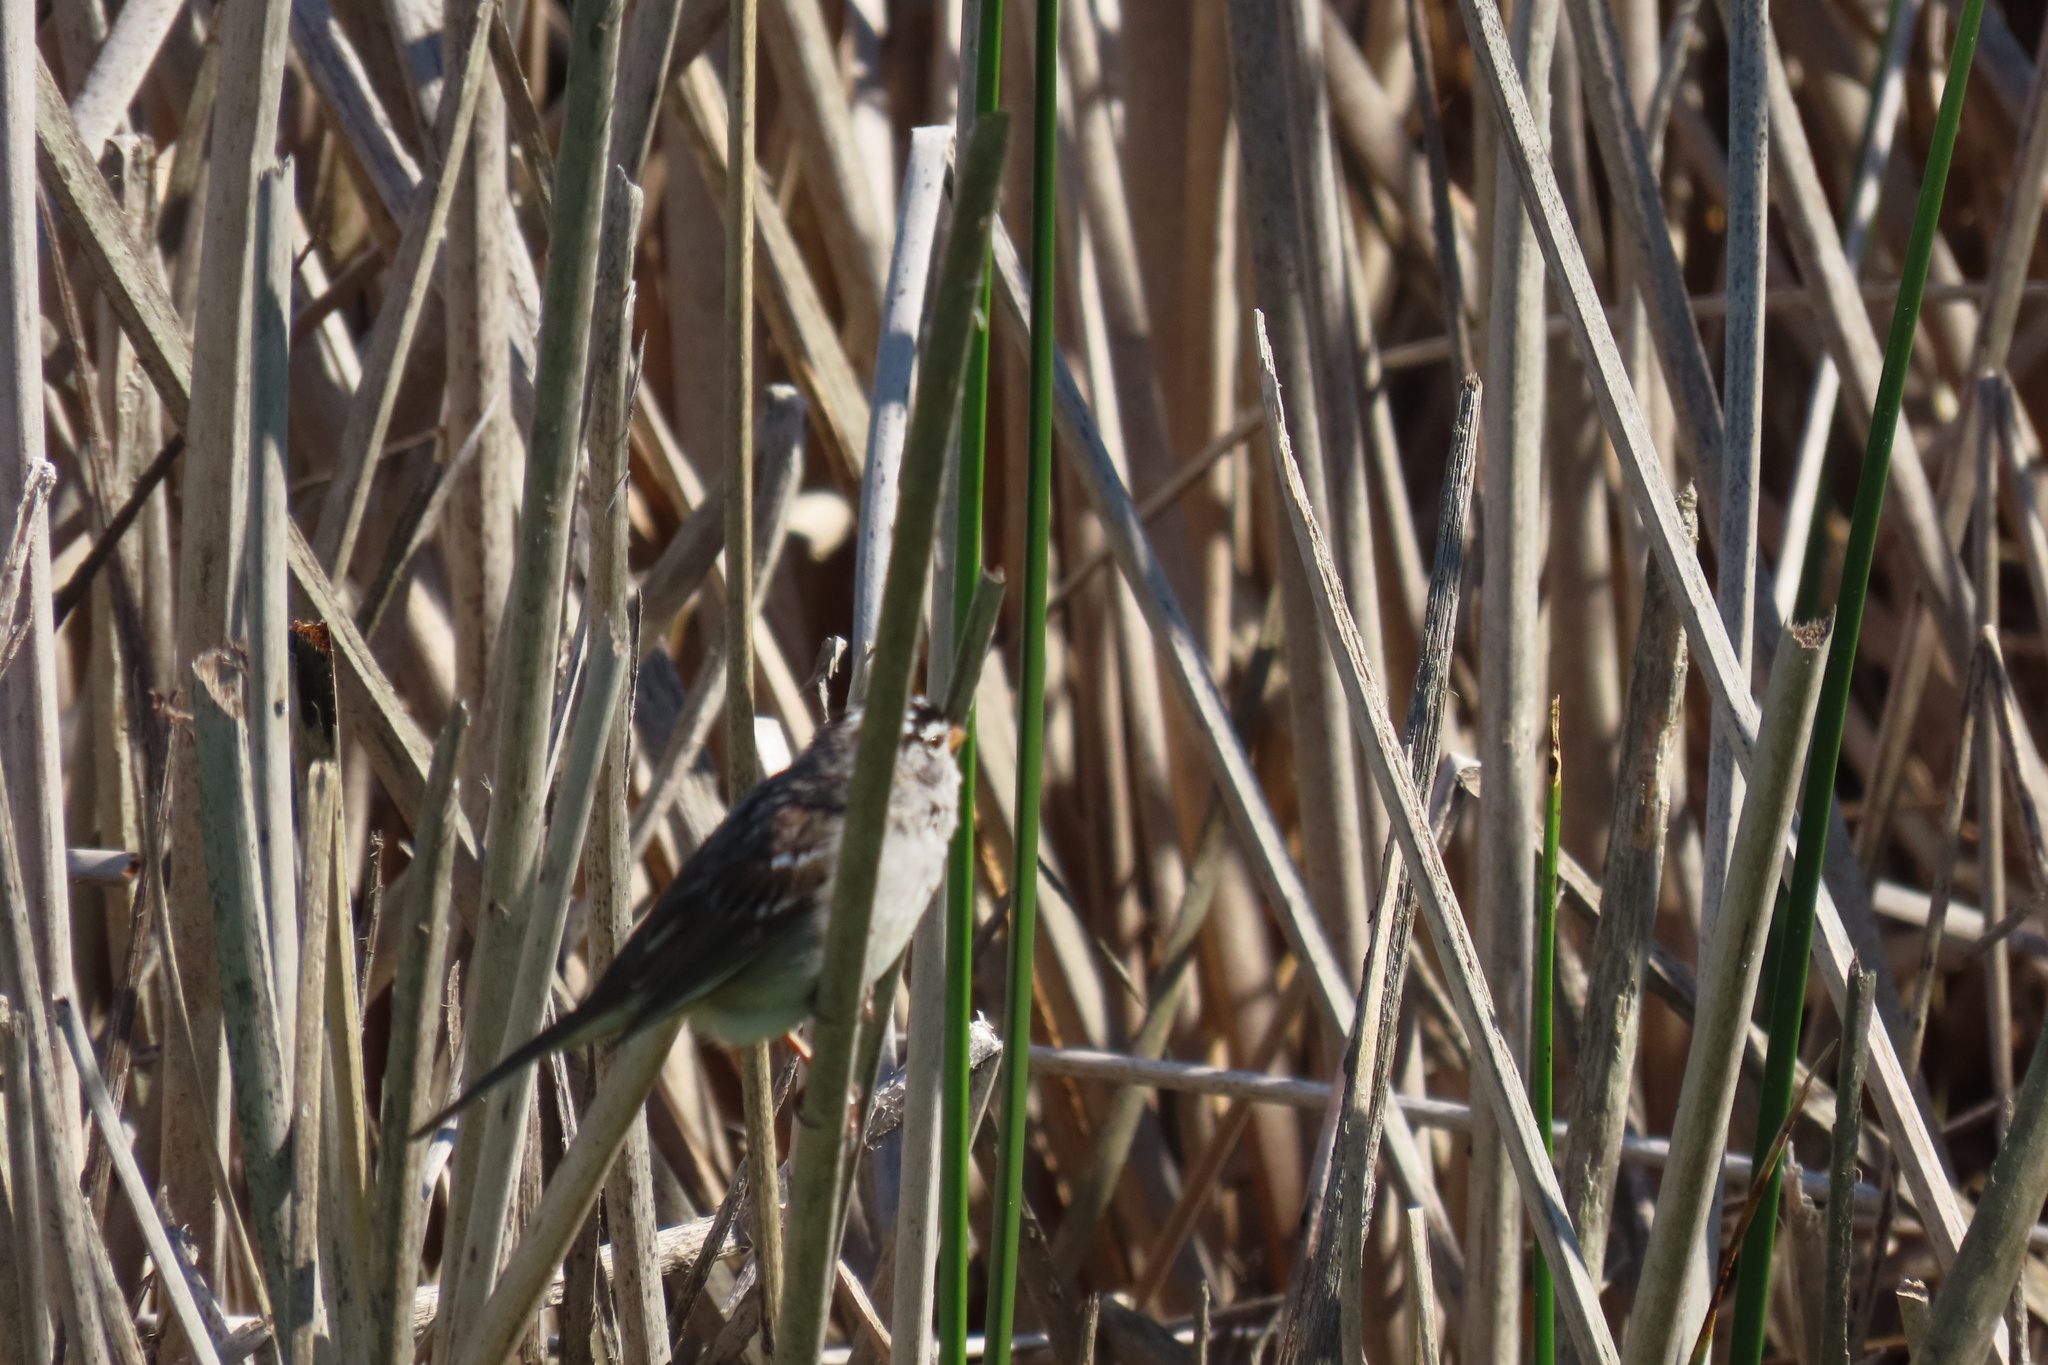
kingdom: Animalia
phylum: Chordata
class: Aves
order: Passeriformes
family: Passerellidae
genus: Zonotrichia
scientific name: Zonotrichia leucophrys
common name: White-crowned sparrow
